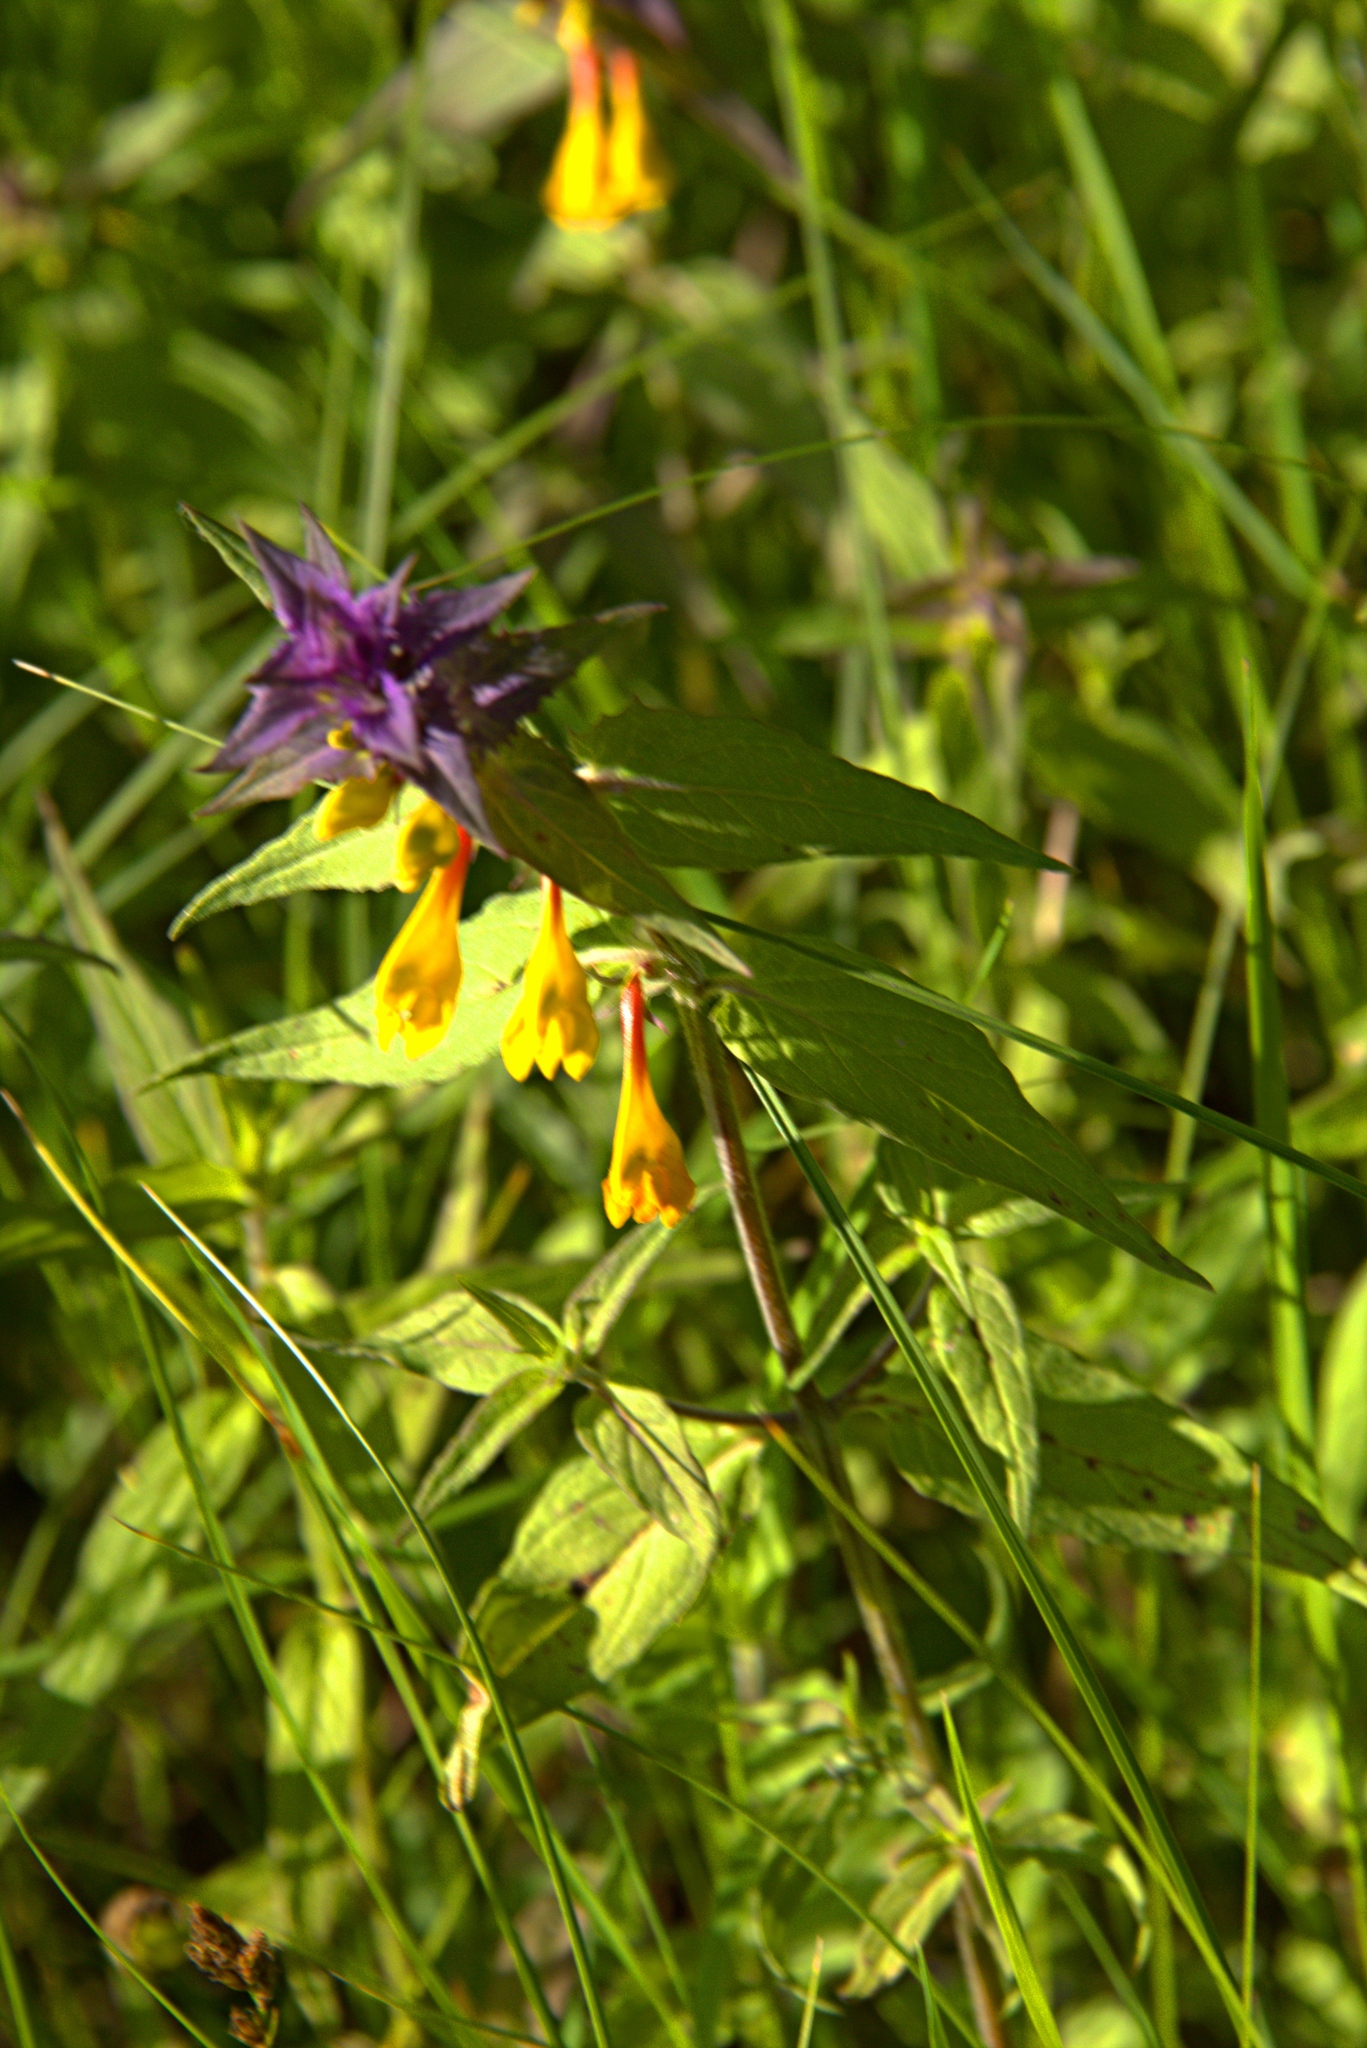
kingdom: Plantae
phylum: Tracheophyta
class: Magnoliopsida
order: Lamiales
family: Orobanchaceae
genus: Melampyrum
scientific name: Melampyrum nemorosum
